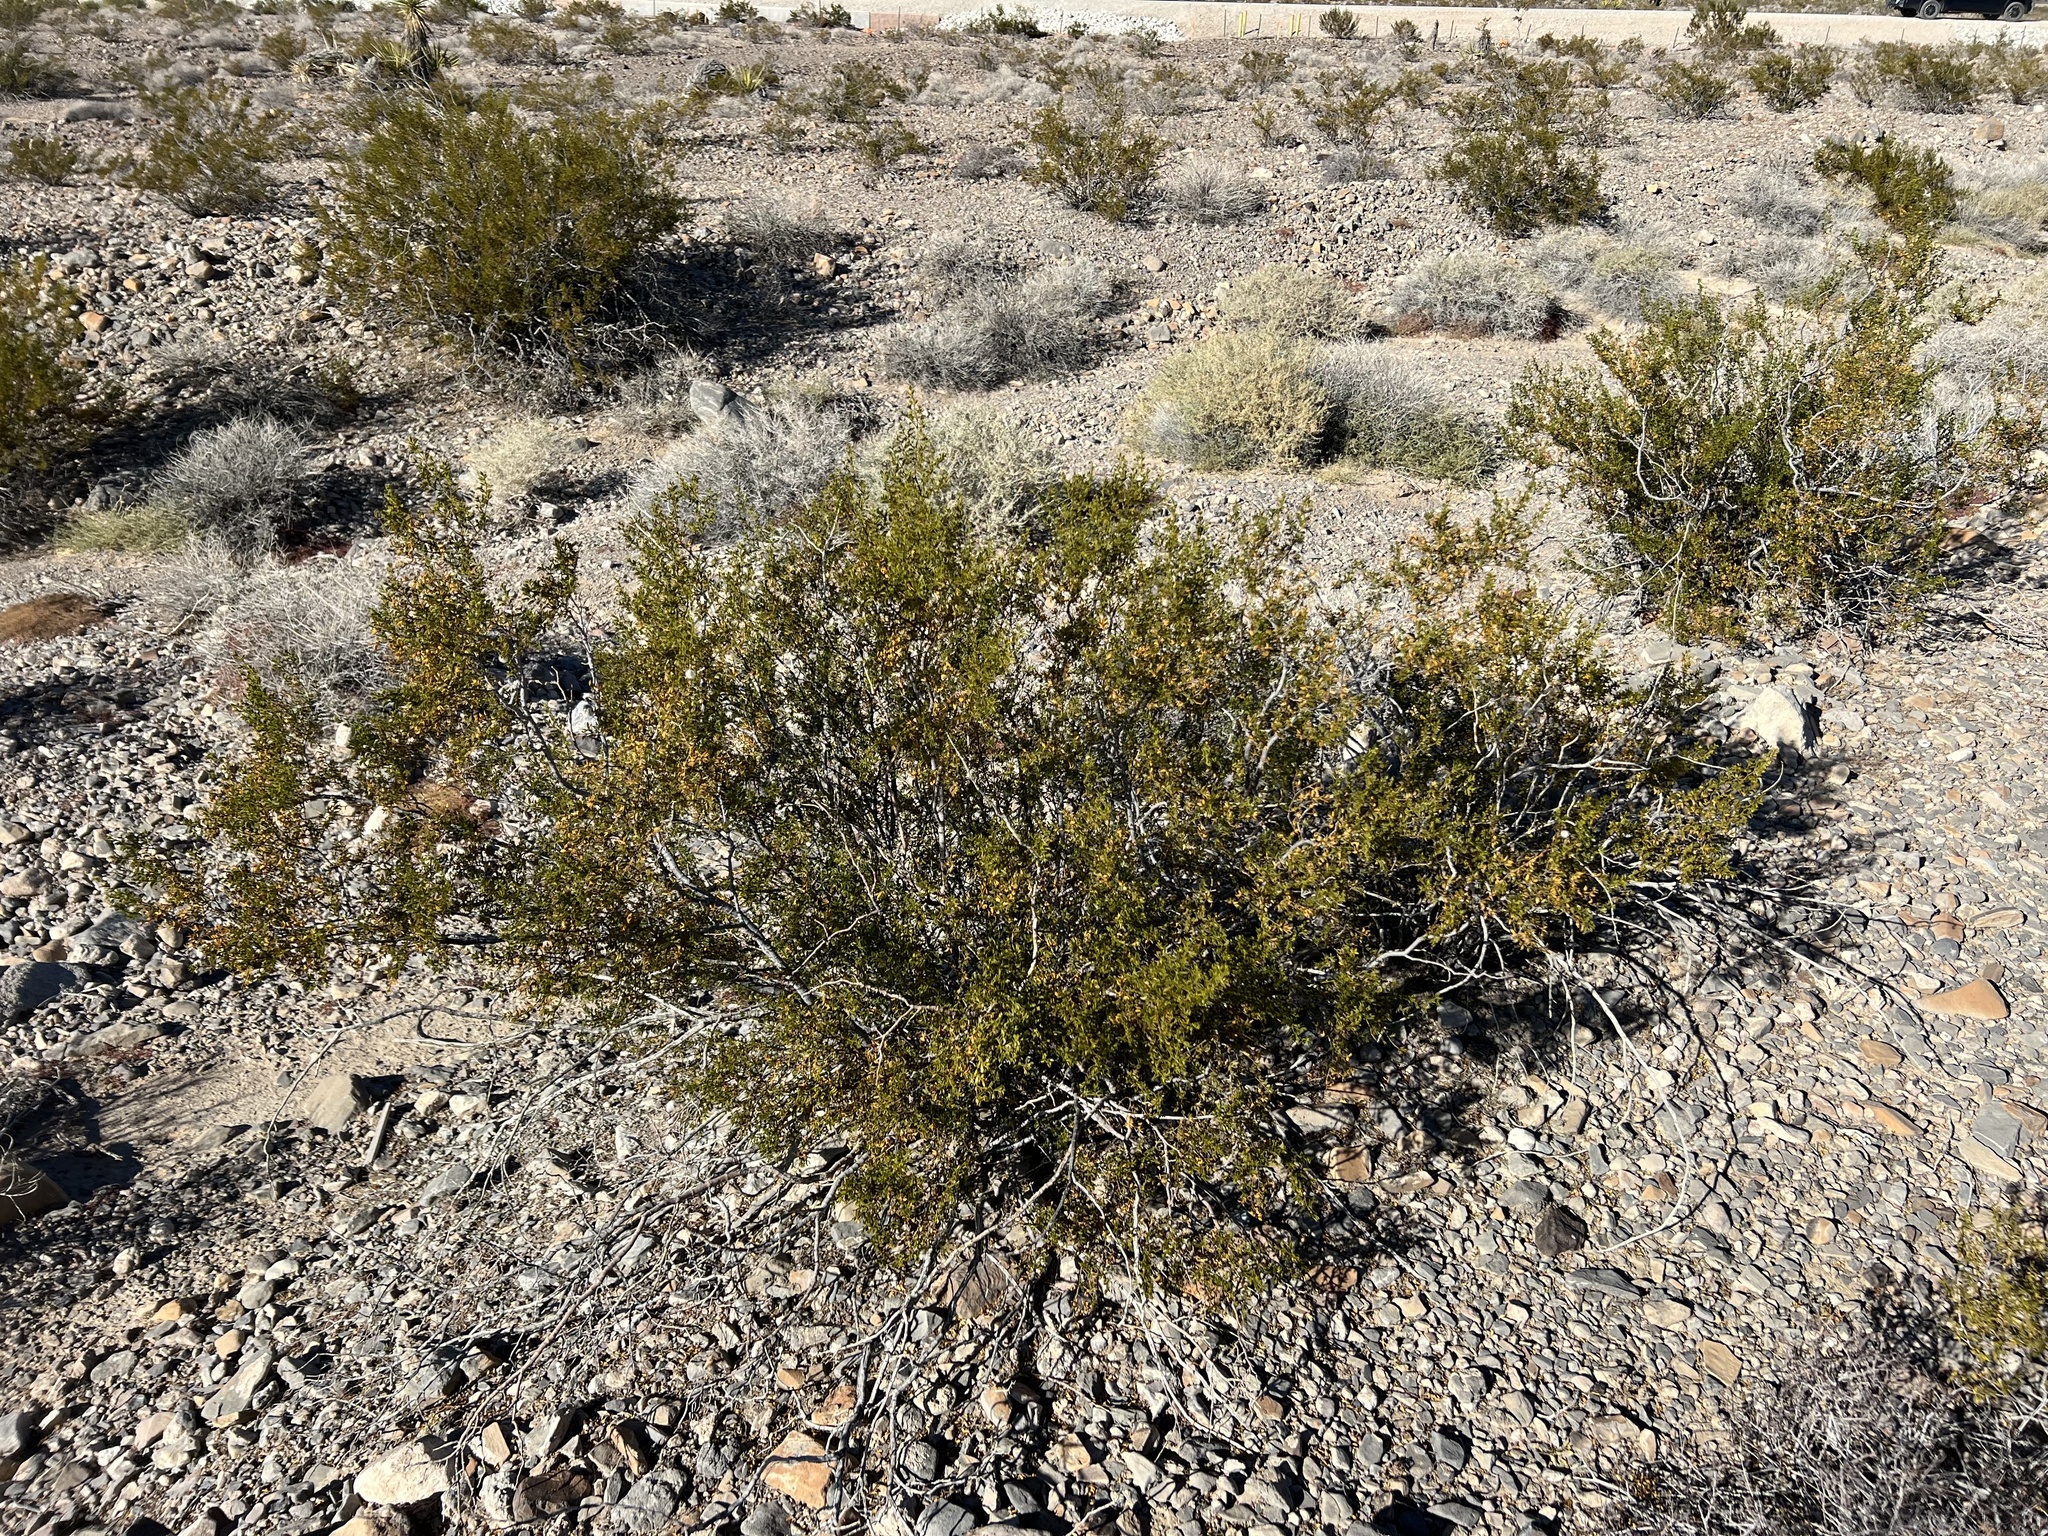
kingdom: Plantae
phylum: Tracheophyta
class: Magnoliopsida
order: Zygophyllales
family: Zygophyllaceae
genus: Larrea
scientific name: Larrea tridentata
